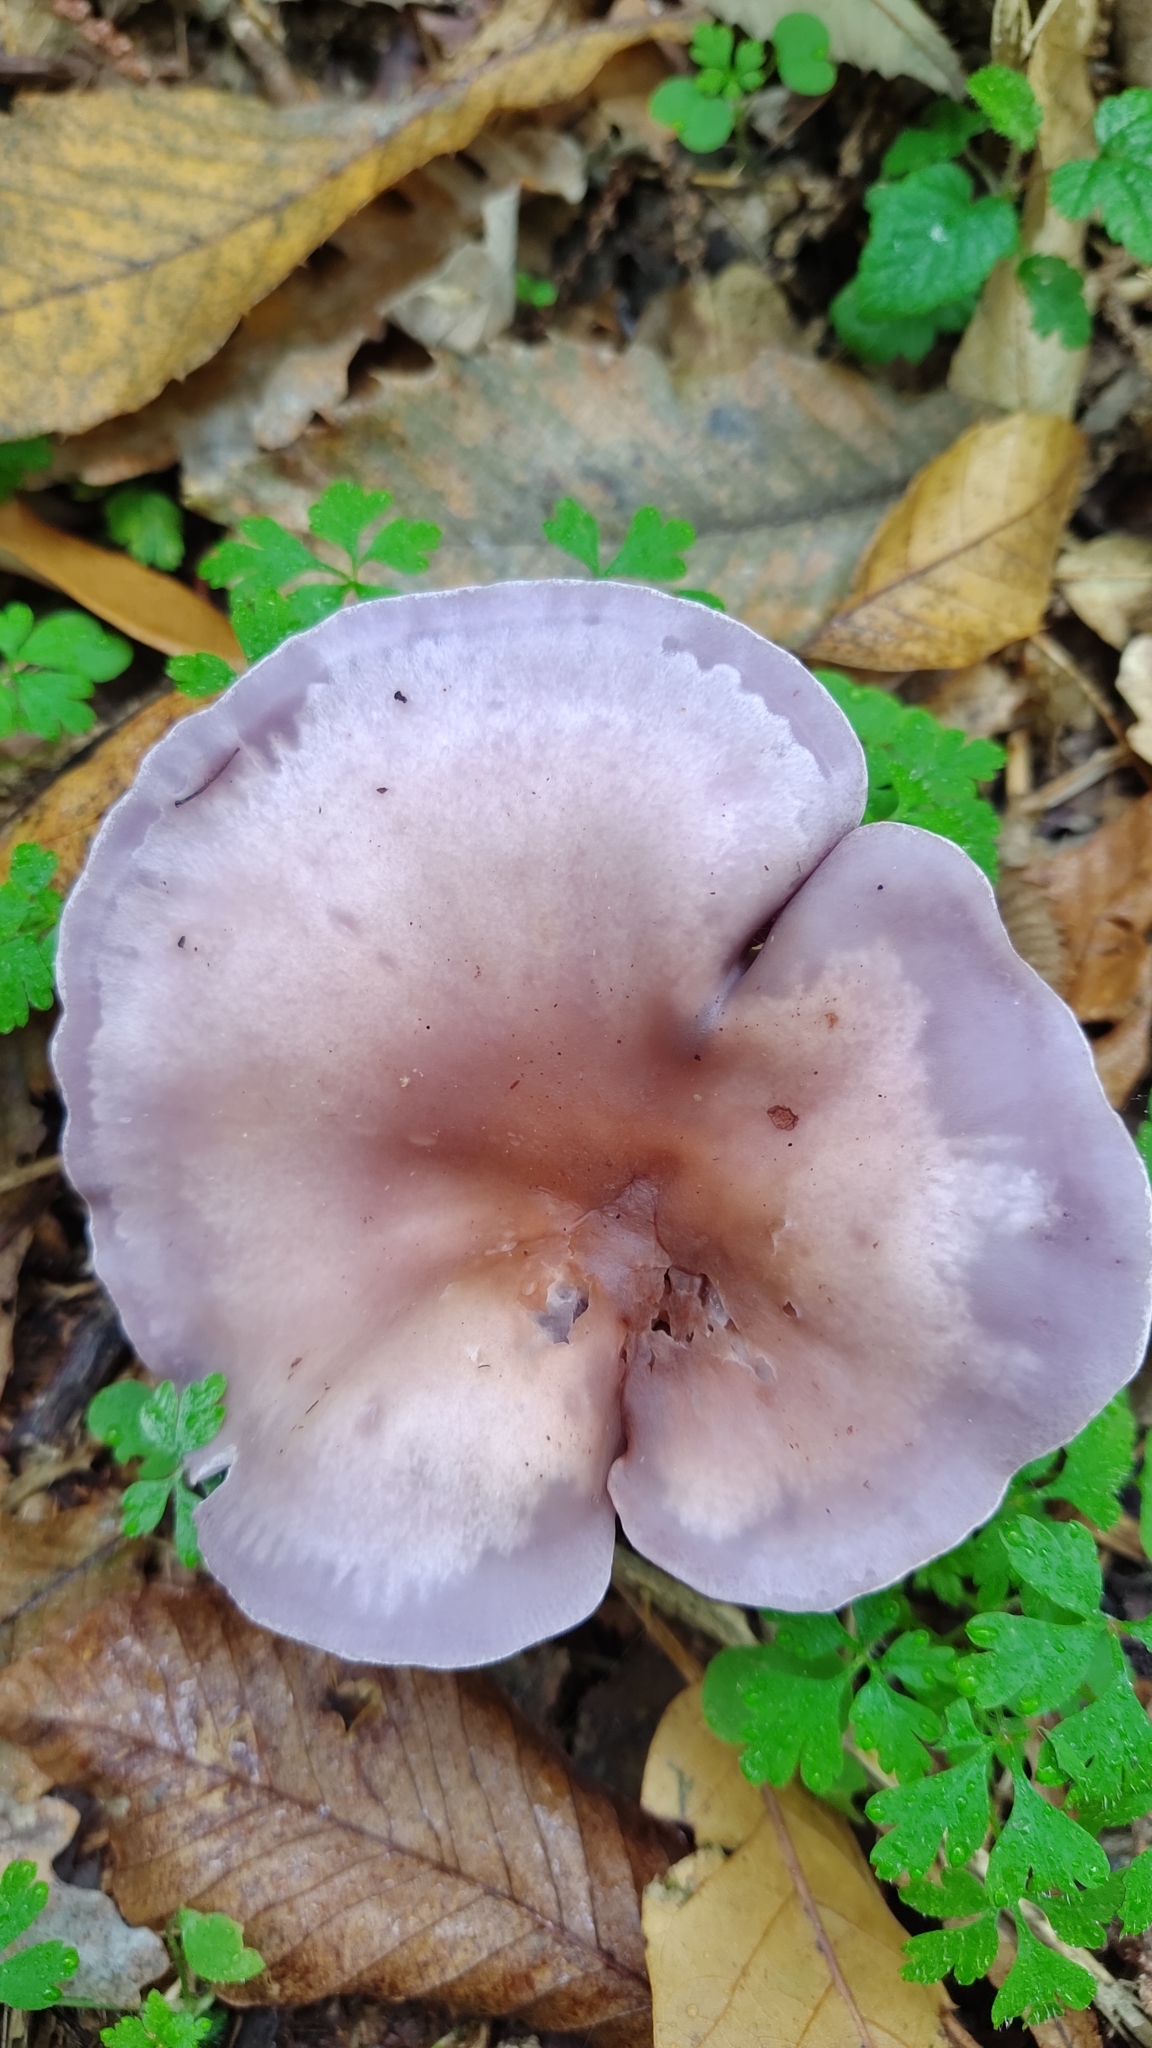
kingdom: Fungi
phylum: Basidiomycota
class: Agaricomycetes
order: Agaricales
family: Tricholomataceae
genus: Collybia
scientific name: Collybia
